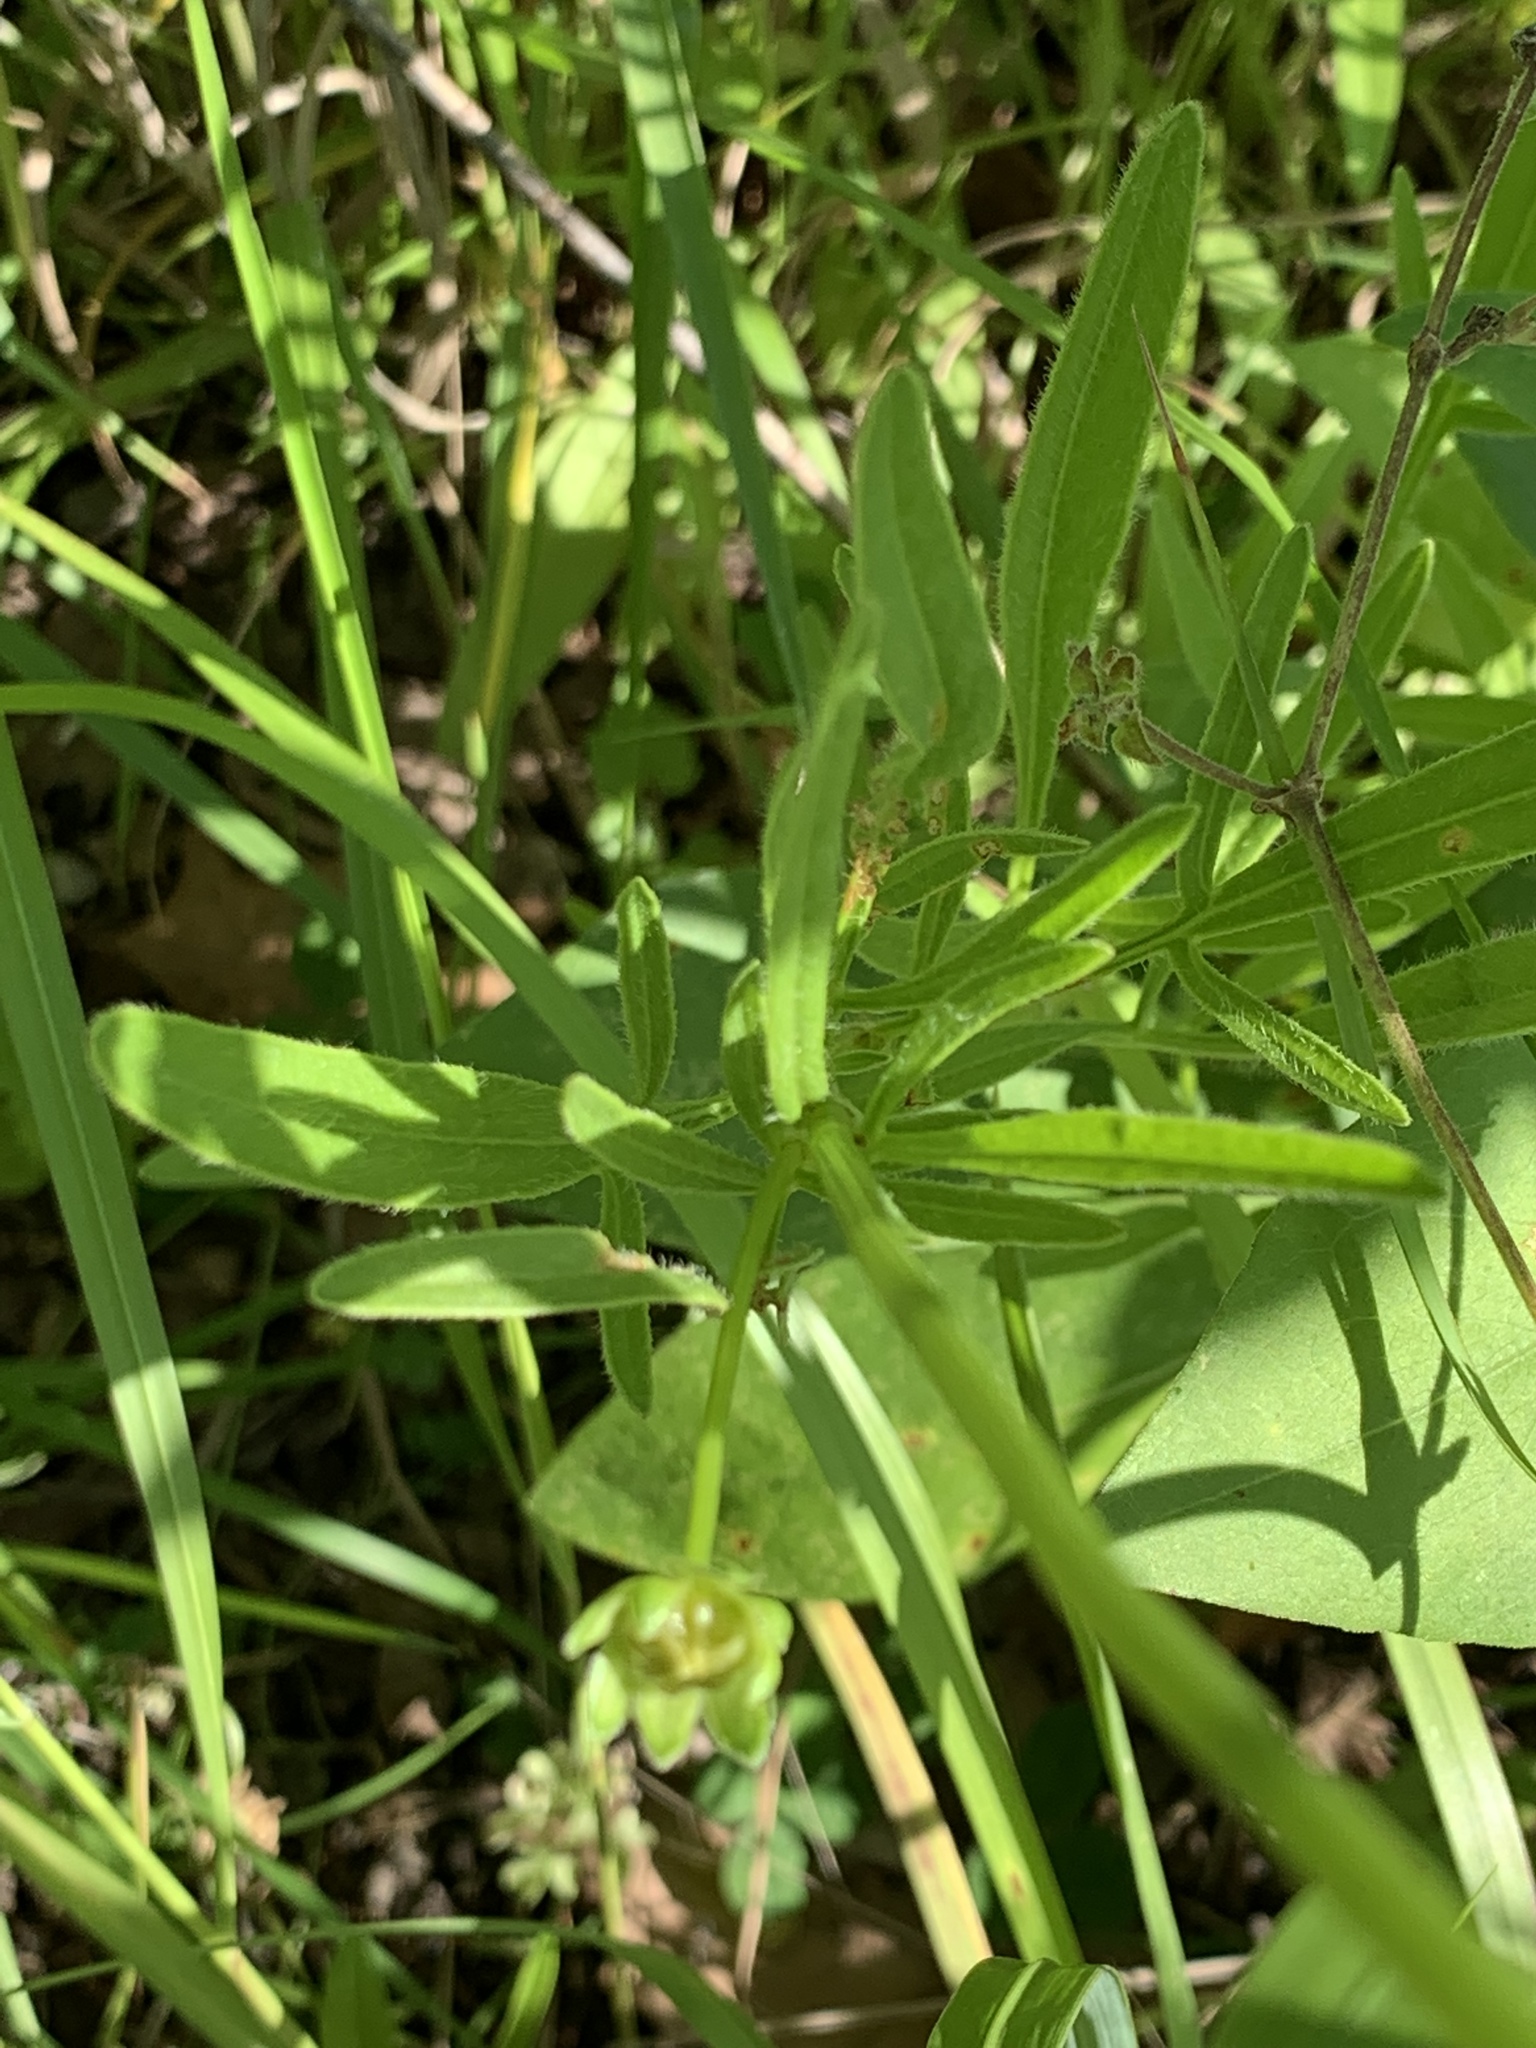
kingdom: Plantae
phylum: Tracheophyta
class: Magnoliopsida
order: Asterales
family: Asteraceae
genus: Coreopsis
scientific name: Coreopsis lanceolata
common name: Garden coreopsis
